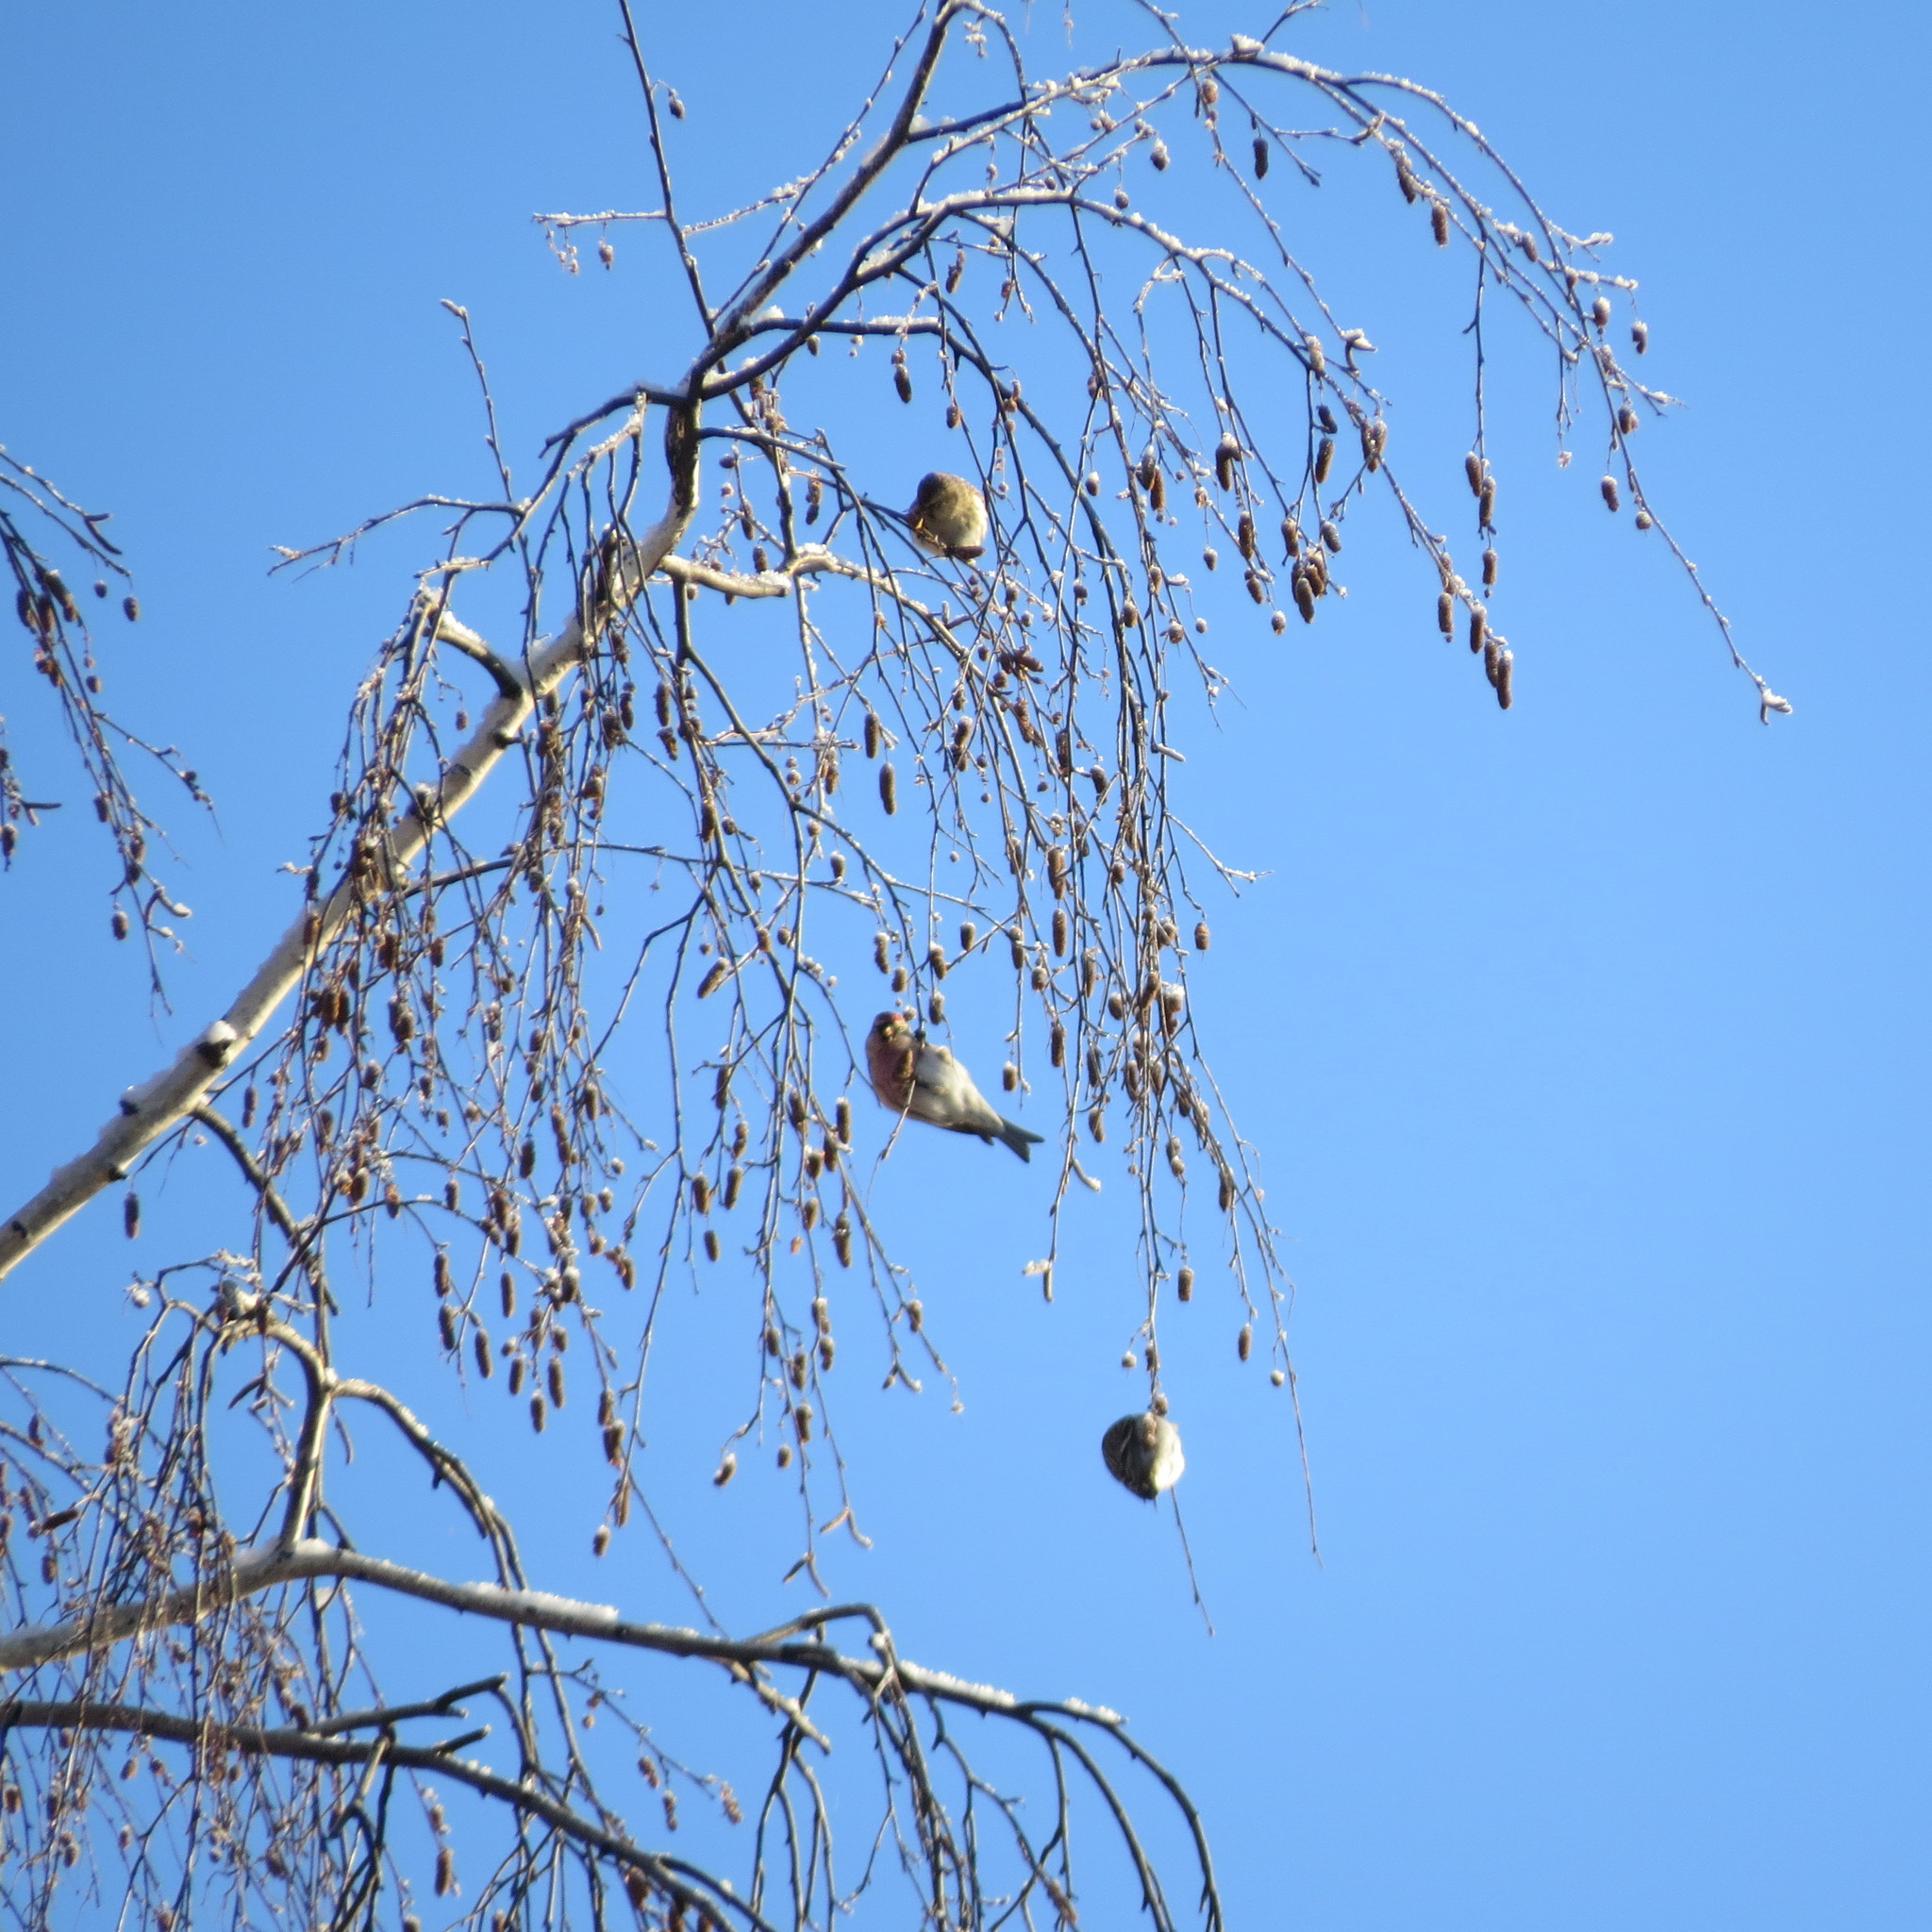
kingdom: Animalia
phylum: Chordata
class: Aves
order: Passeriformes
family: Fringillidae
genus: Acanthis
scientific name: Acanthis flammea
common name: Common redpoll
